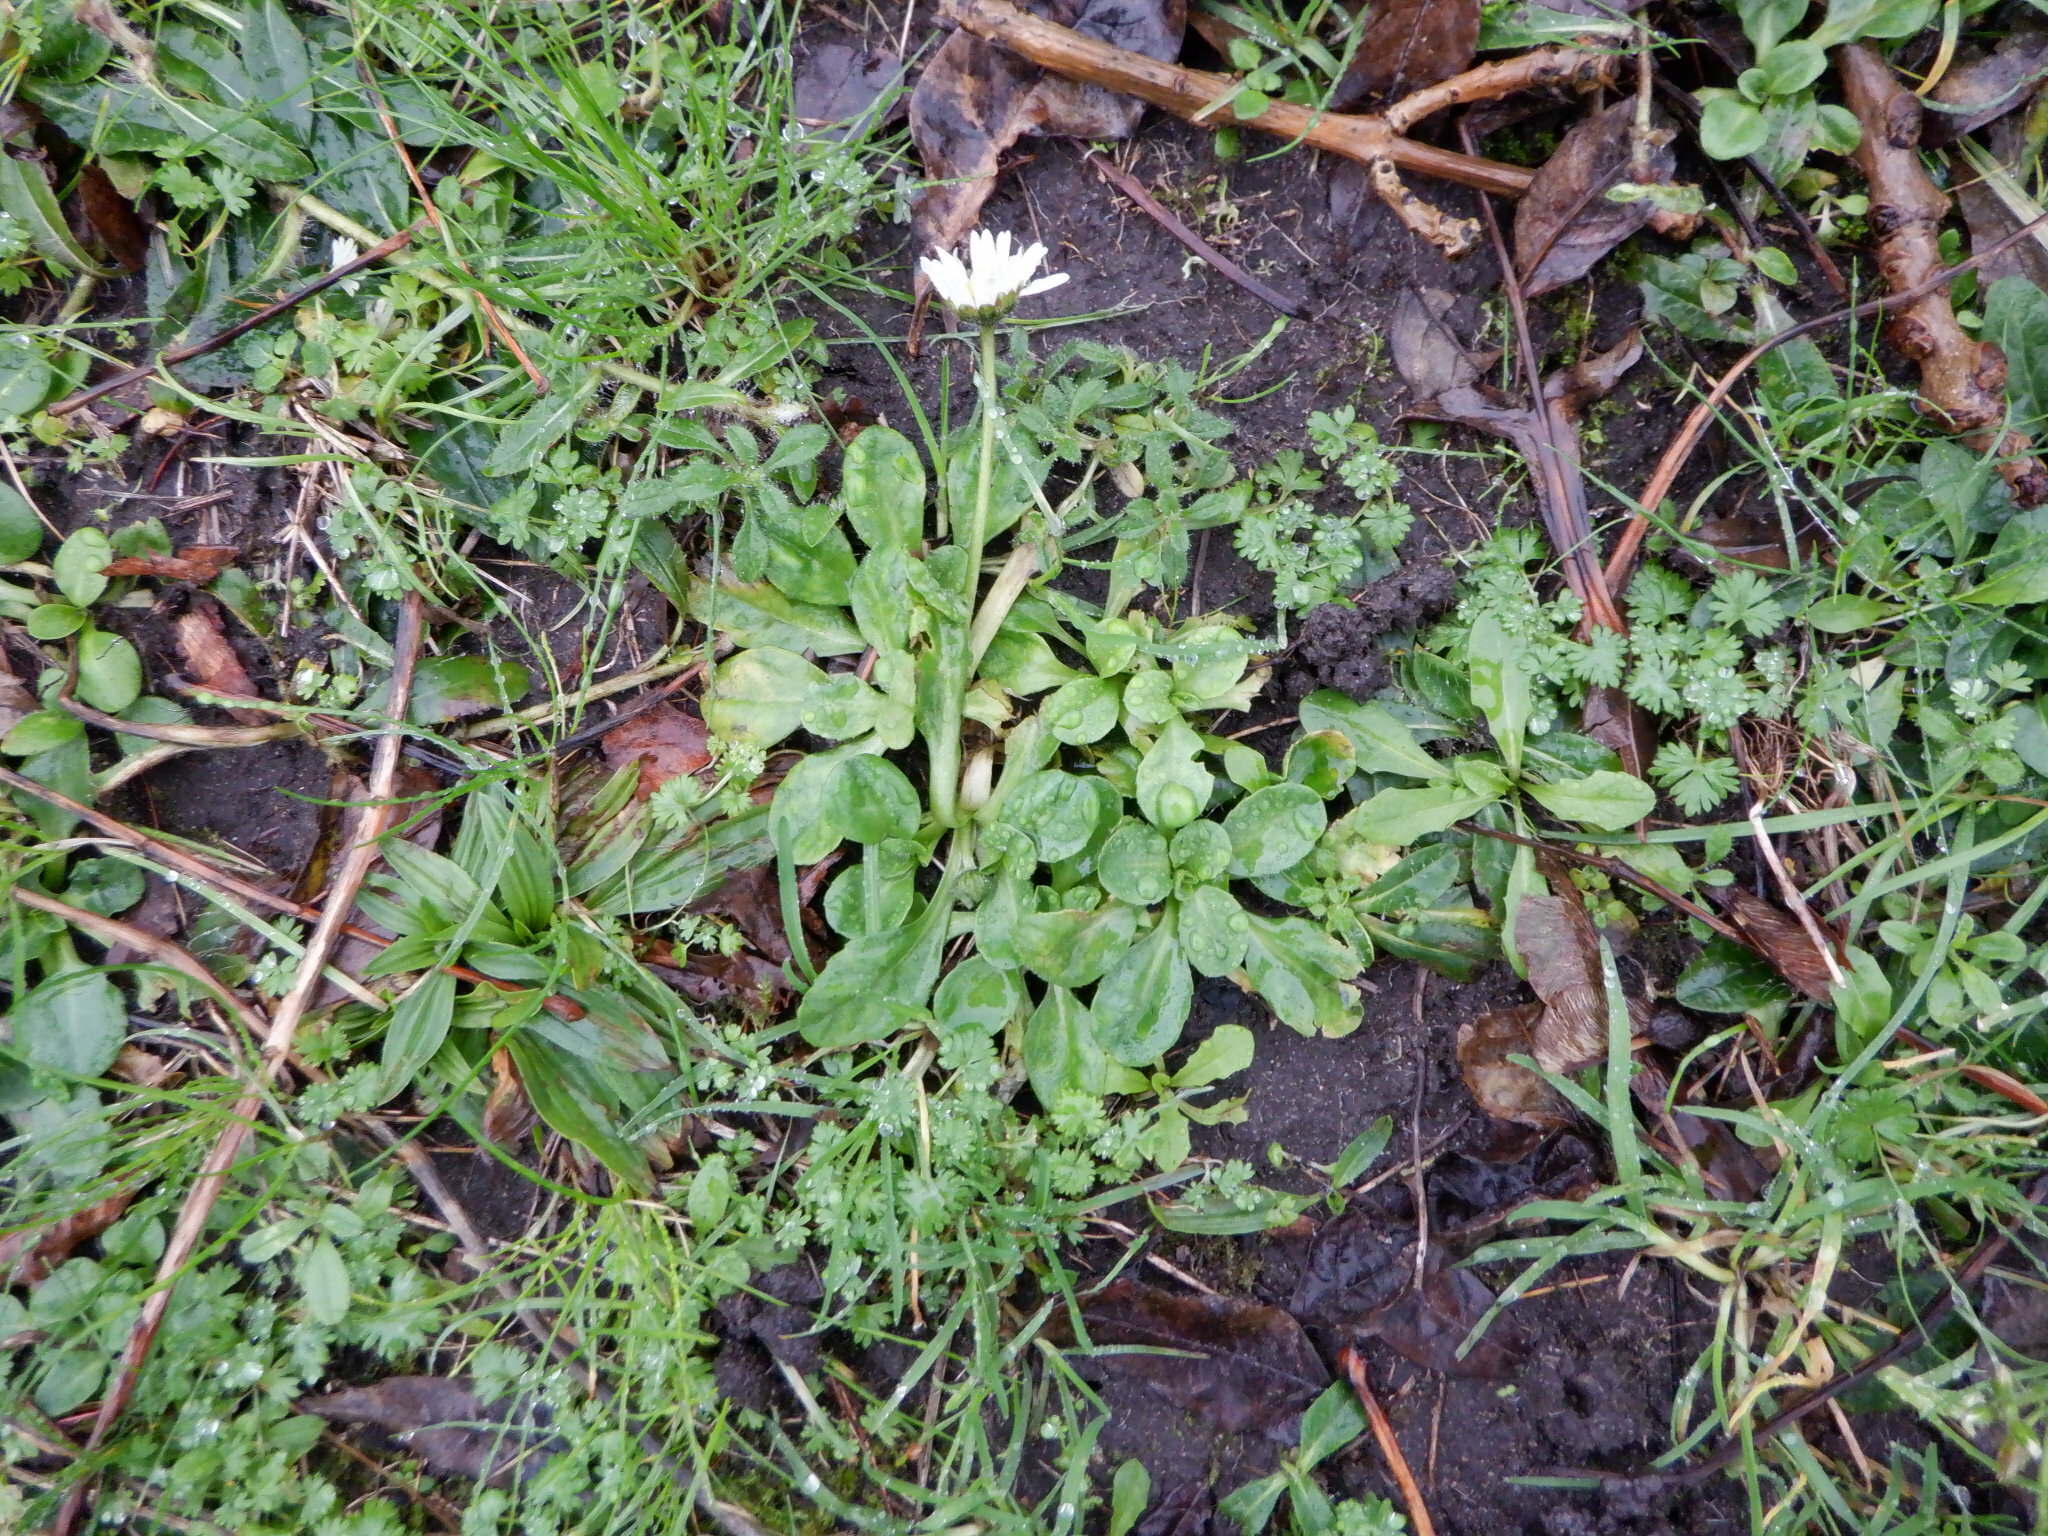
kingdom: Plantae
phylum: Tracheophyta
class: Magnoliopsida
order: Asterales
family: Asteraceae
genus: Bellis
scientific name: Bellis perennis
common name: Lawndaisy
